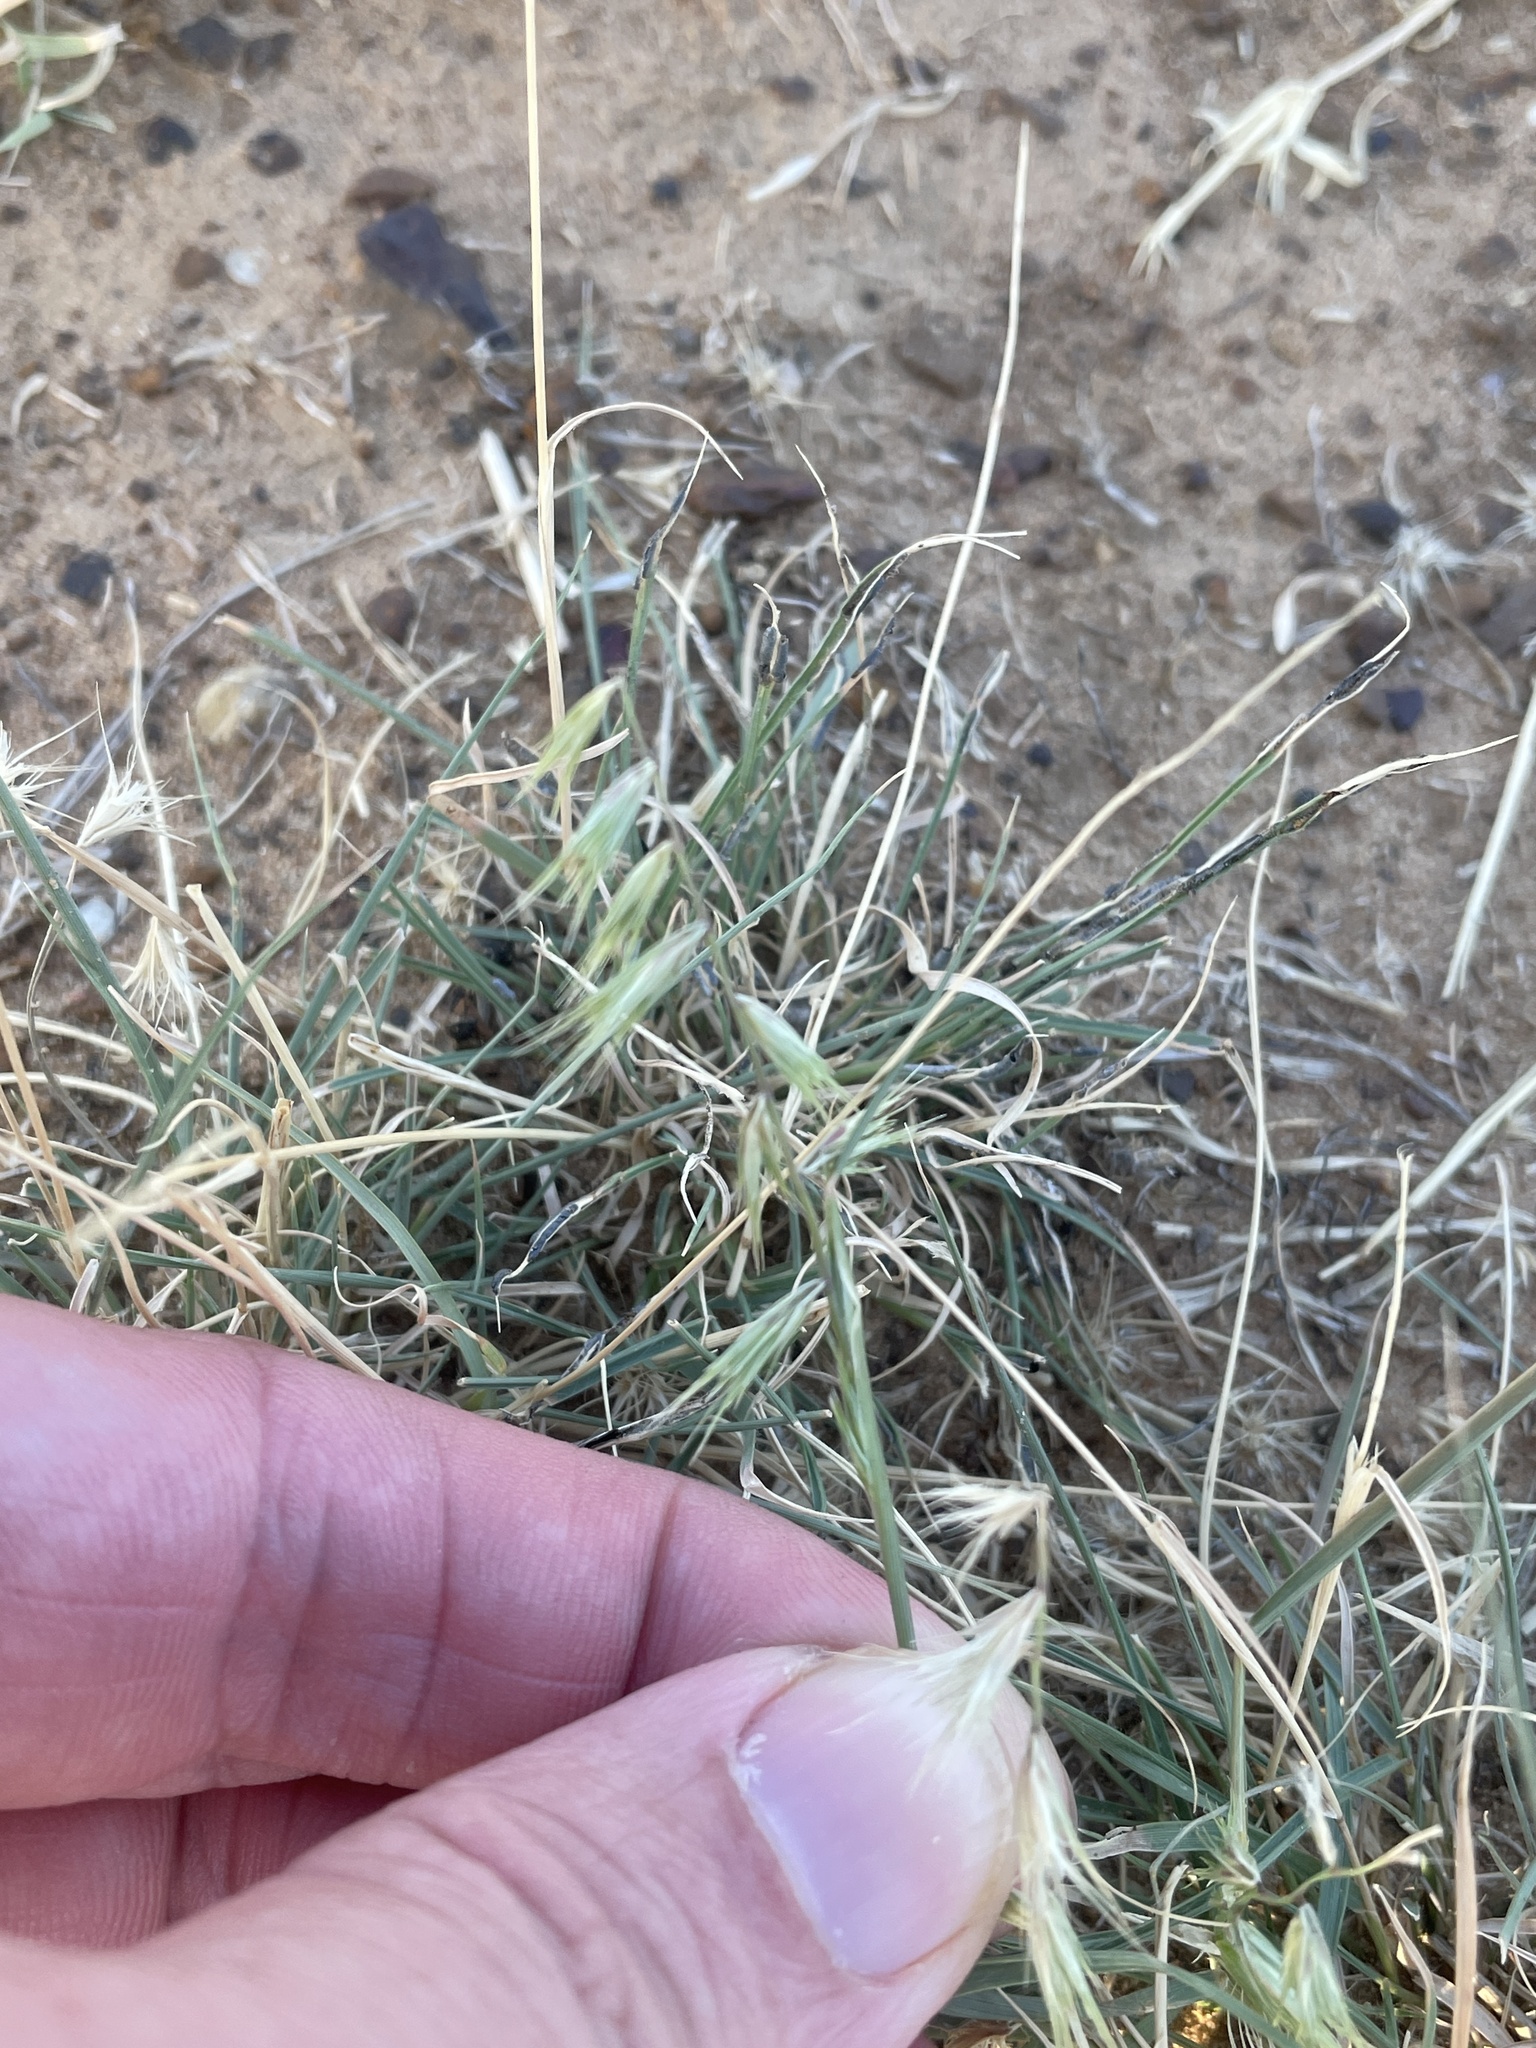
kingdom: Plantae
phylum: Tracheophyta
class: Liliopsida
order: Poales
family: Poaceae
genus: Bouteloua
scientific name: Bouteloua rigidiseta
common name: Texas grama
